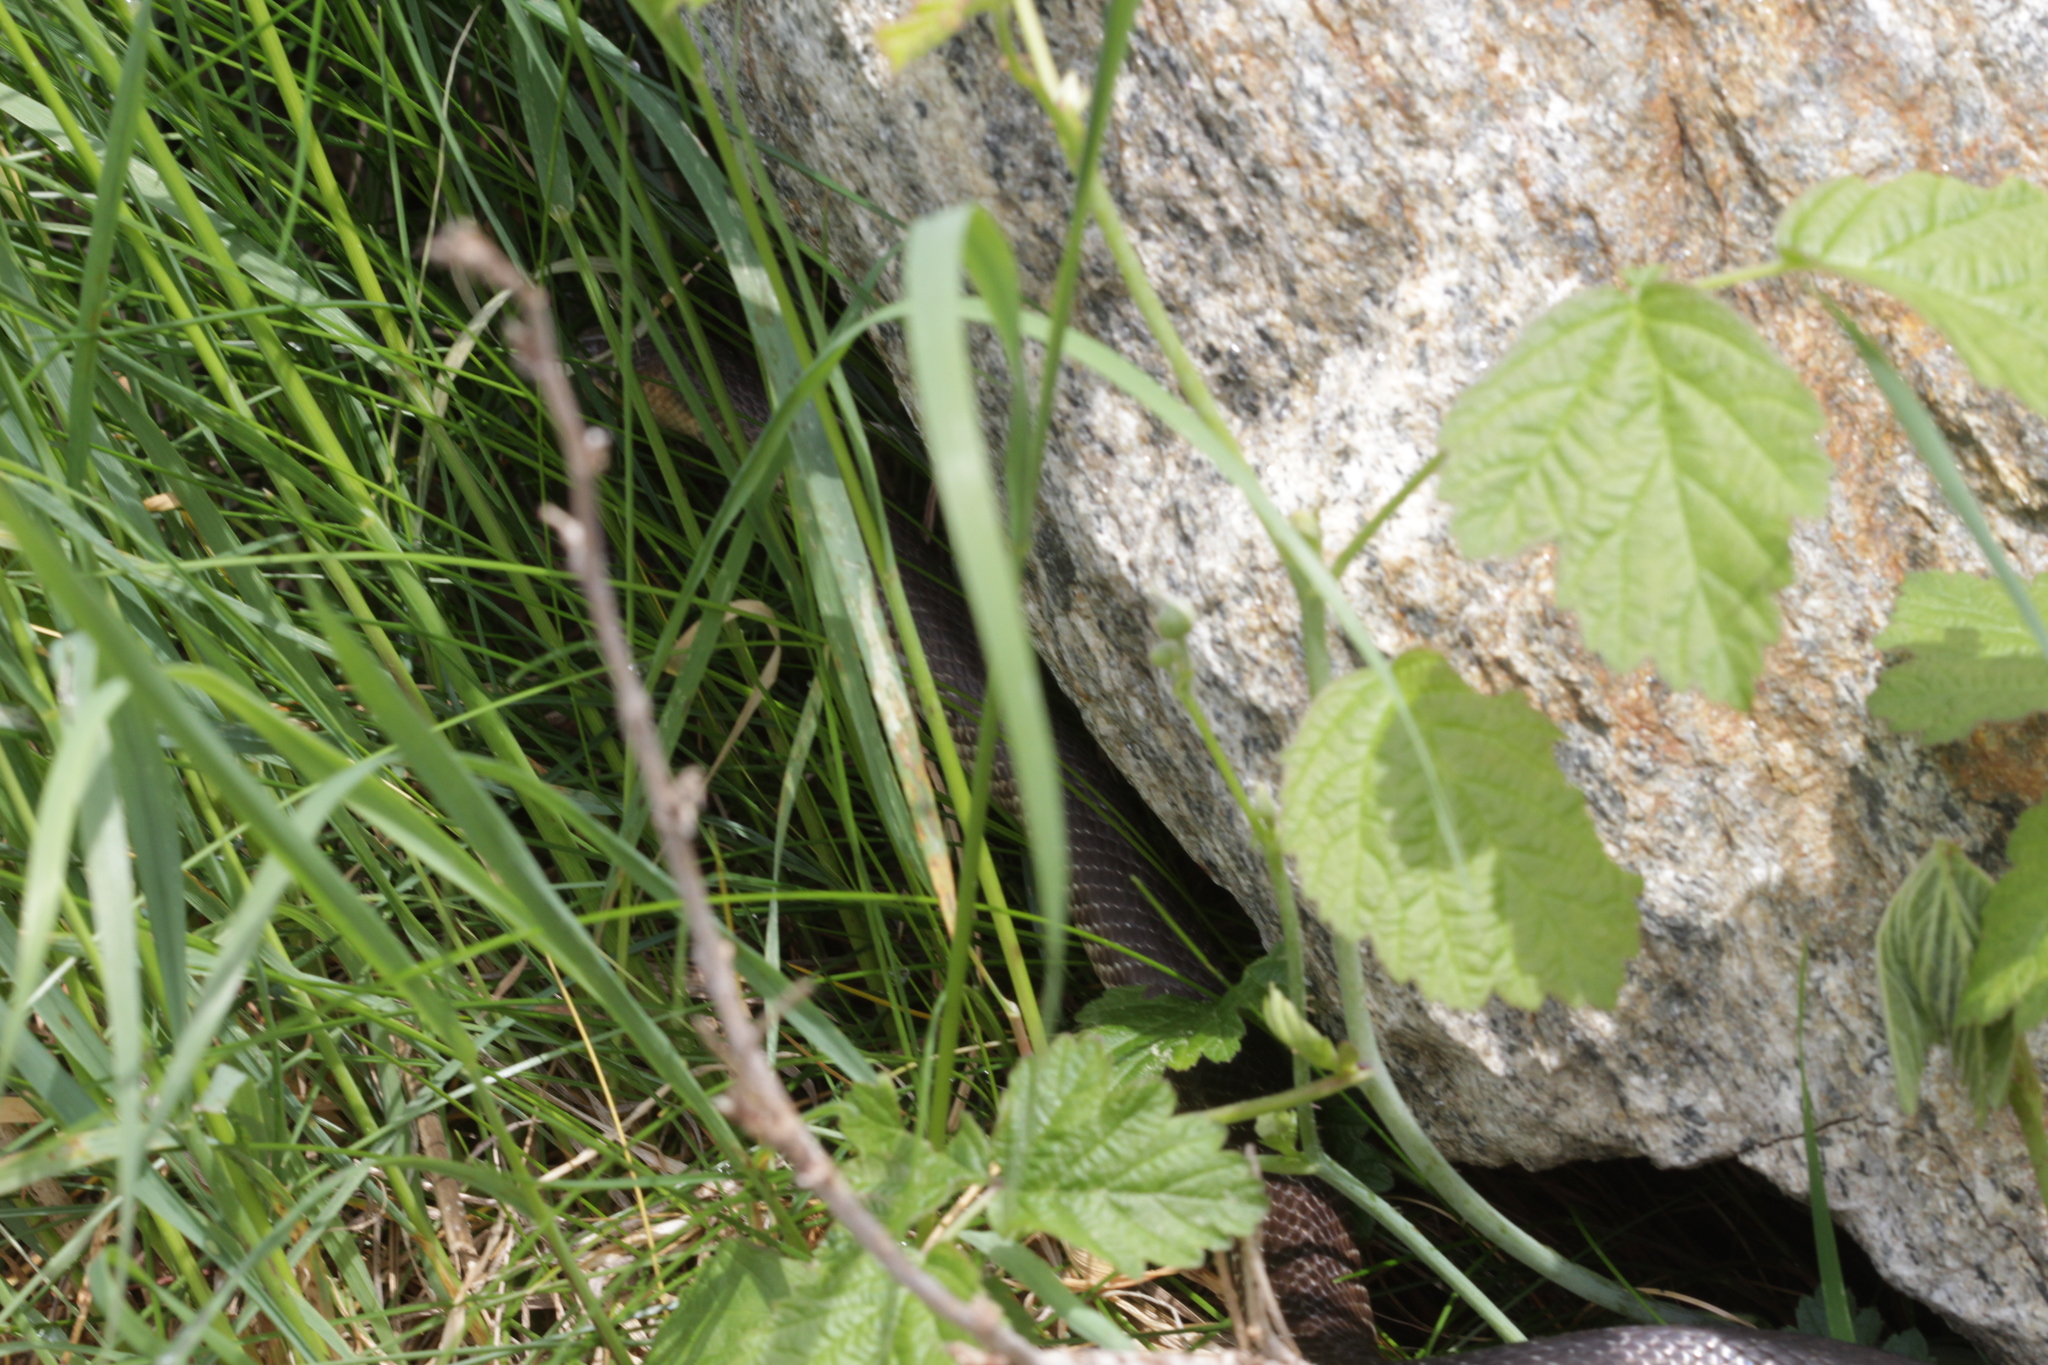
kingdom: Animalia
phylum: Chordata
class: Squamata
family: Colubridae
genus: Zamenis
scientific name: Zamenis longissimus
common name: Aesculapean snake
